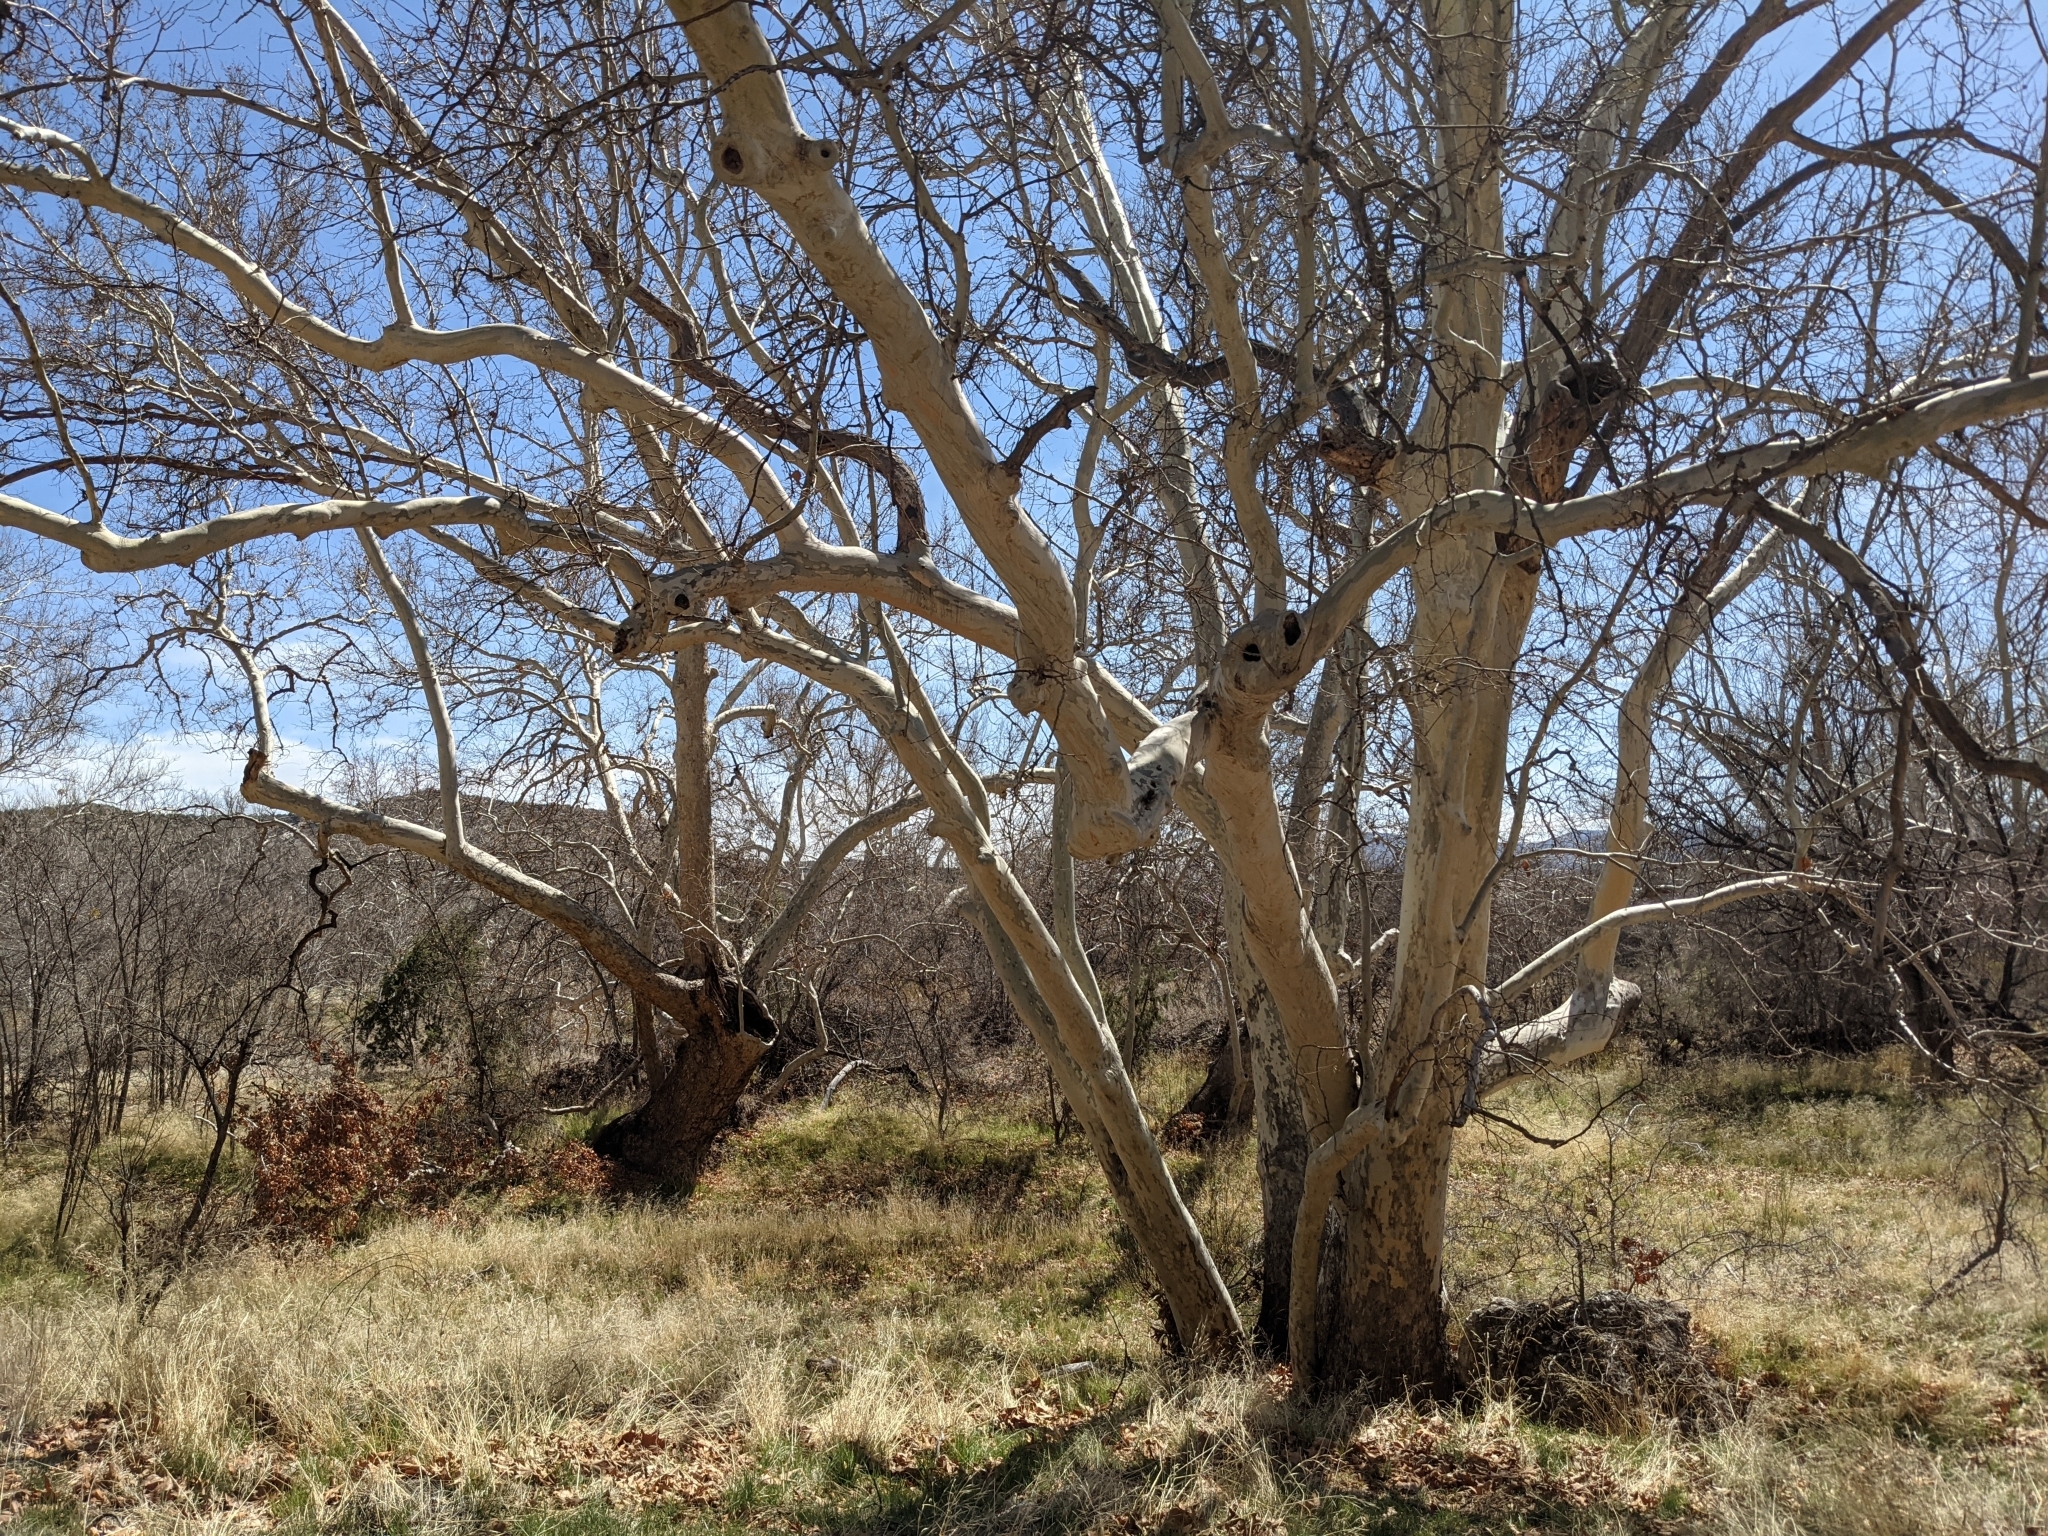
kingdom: Plantae
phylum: Tracheophyta
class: Magnoliopsida
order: Proteales
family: Platanaceae
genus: Platanus
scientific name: Platanus wrightii
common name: Arizona sycamore
